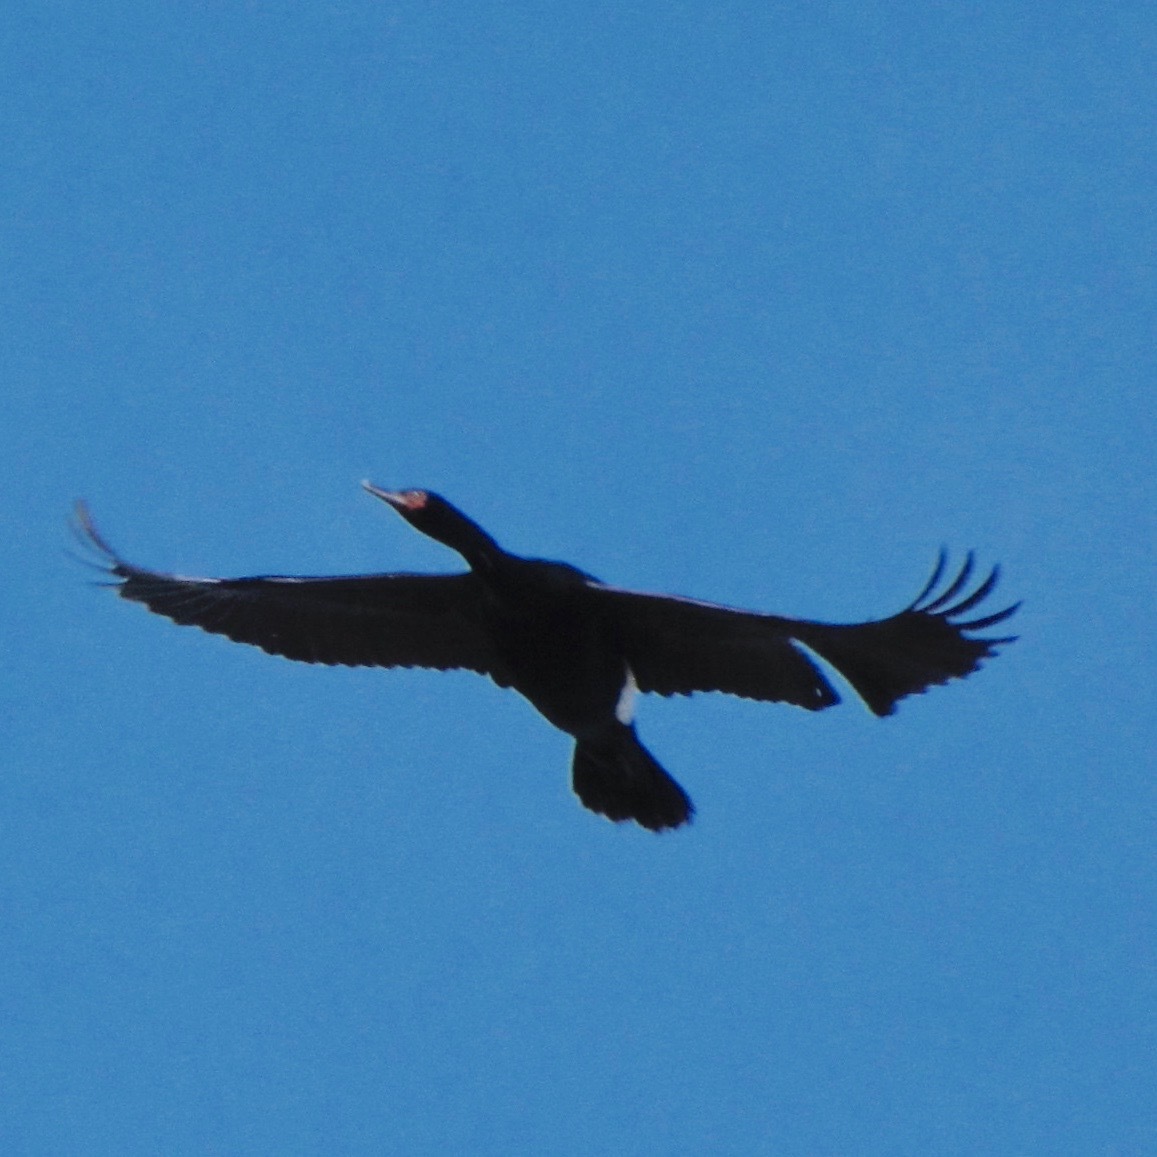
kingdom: Animalia
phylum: Chordata
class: Aves
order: Suliformes
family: Phalacrocoracidae
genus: Phalacrocorax
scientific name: Phalacrocorax pelagicus
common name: Pelagic cormorant
